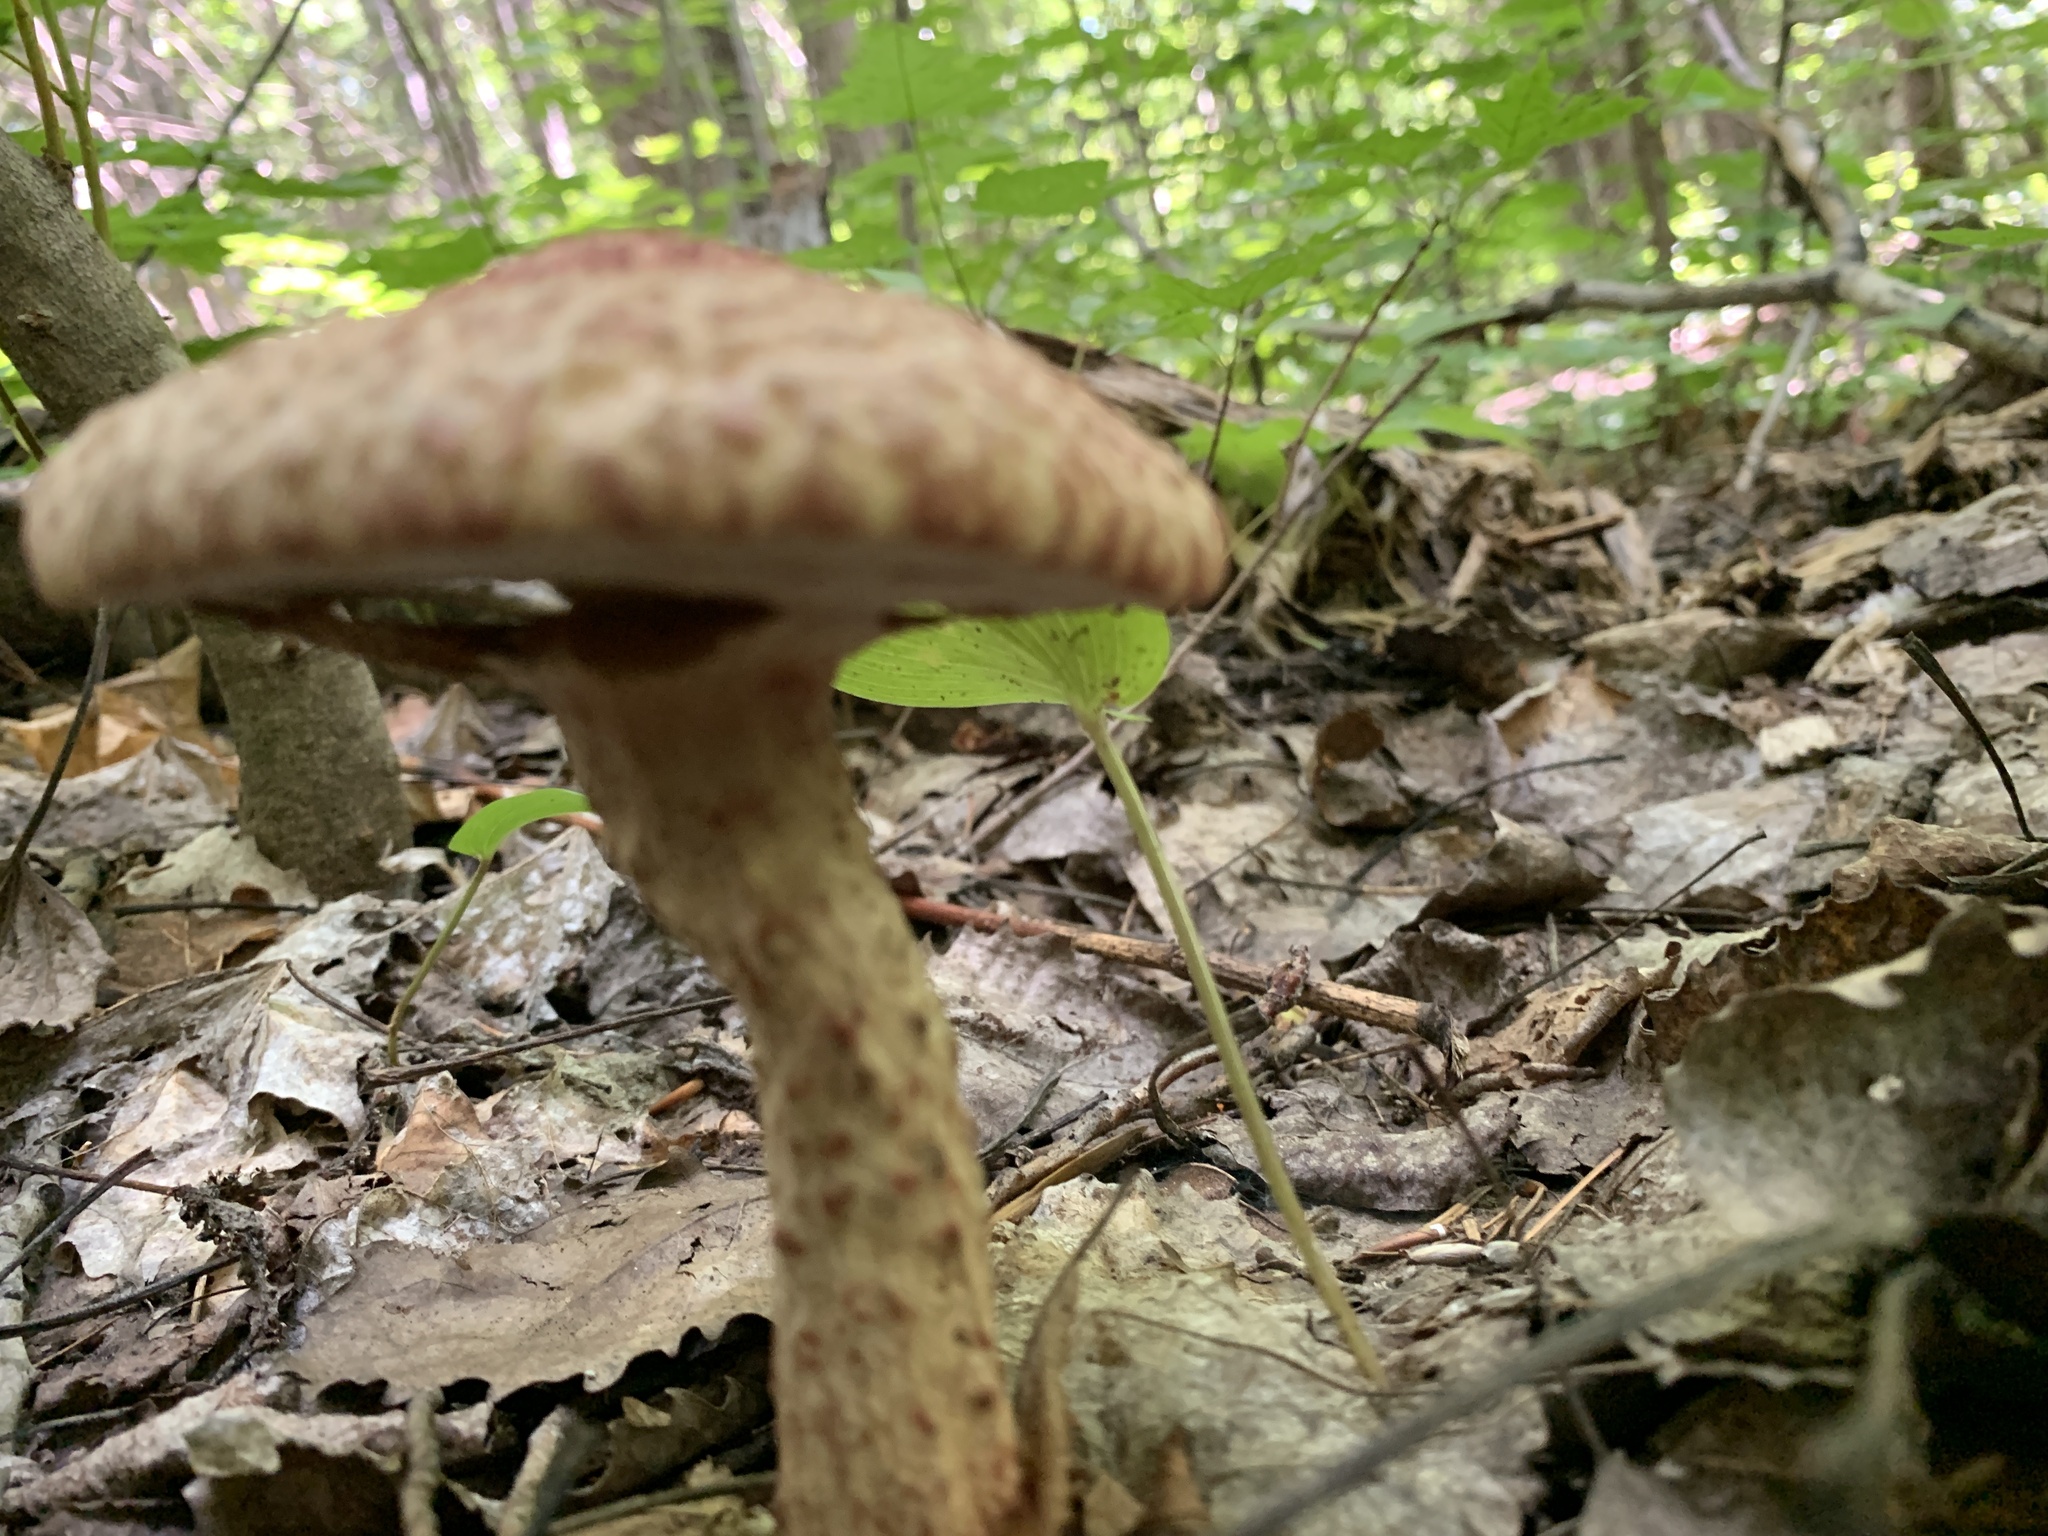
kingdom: Fungi
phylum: Basidiomycota
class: Agaricomycetes
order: Boletales
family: Suillaceae
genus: Suillus
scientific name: Suillus spraguei
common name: Painted suillus
